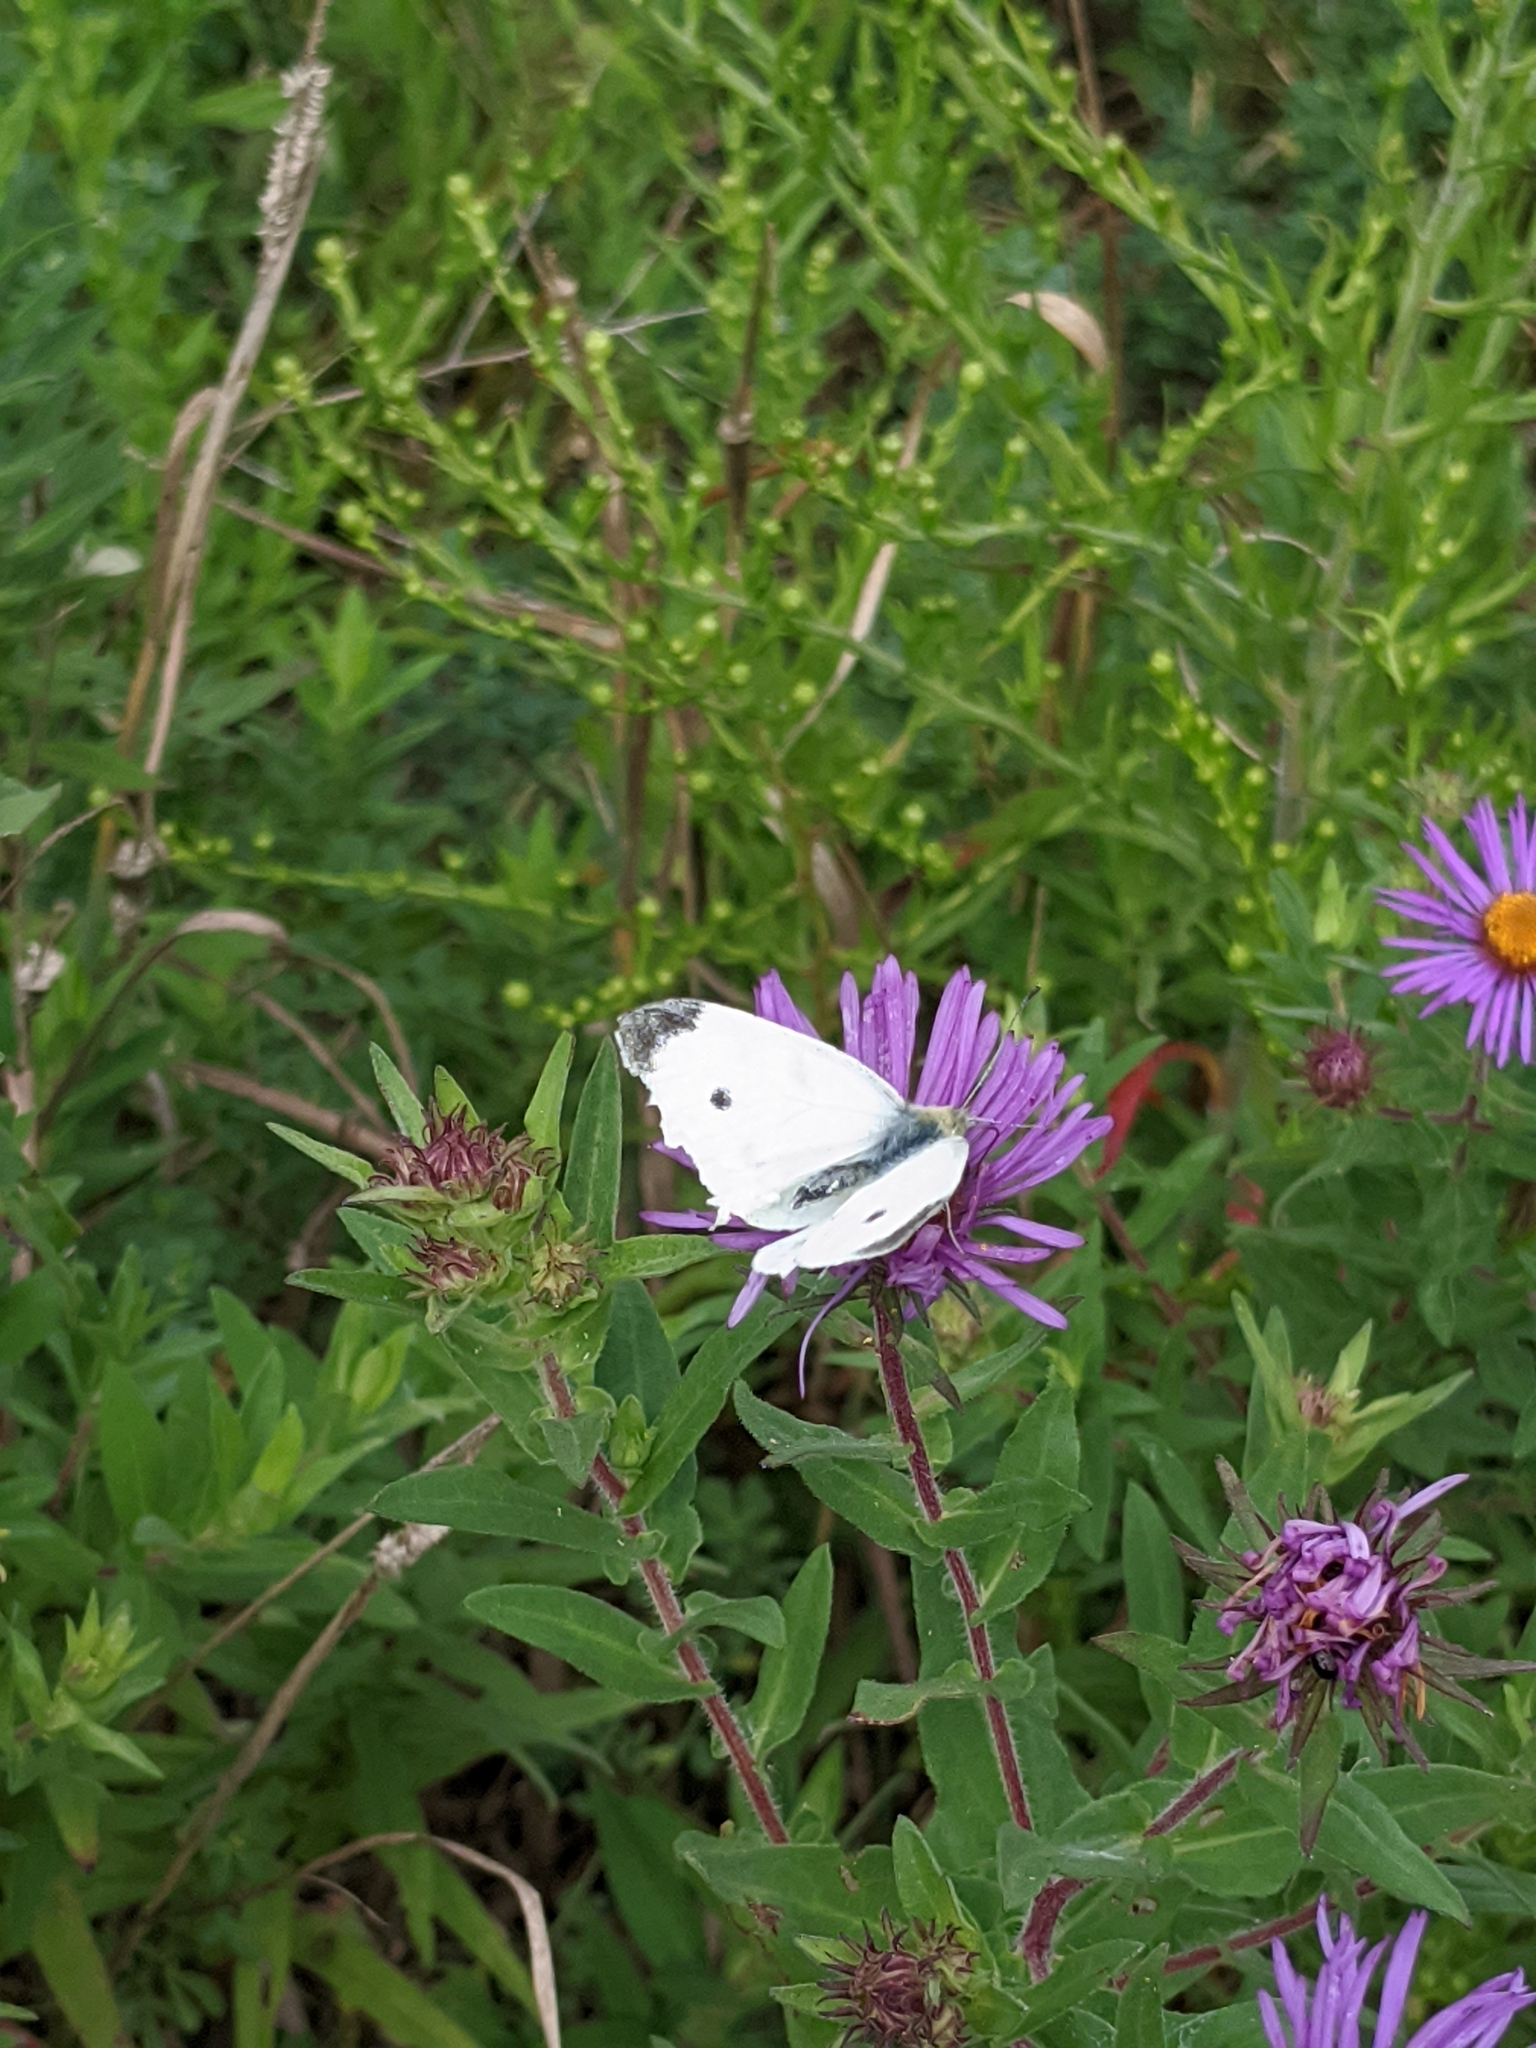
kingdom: Animalia
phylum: Arthropoda
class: Insecta
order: Lepidoptera
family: Pieridae
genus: Pieris
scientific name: Pieris rapae
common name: Small white
